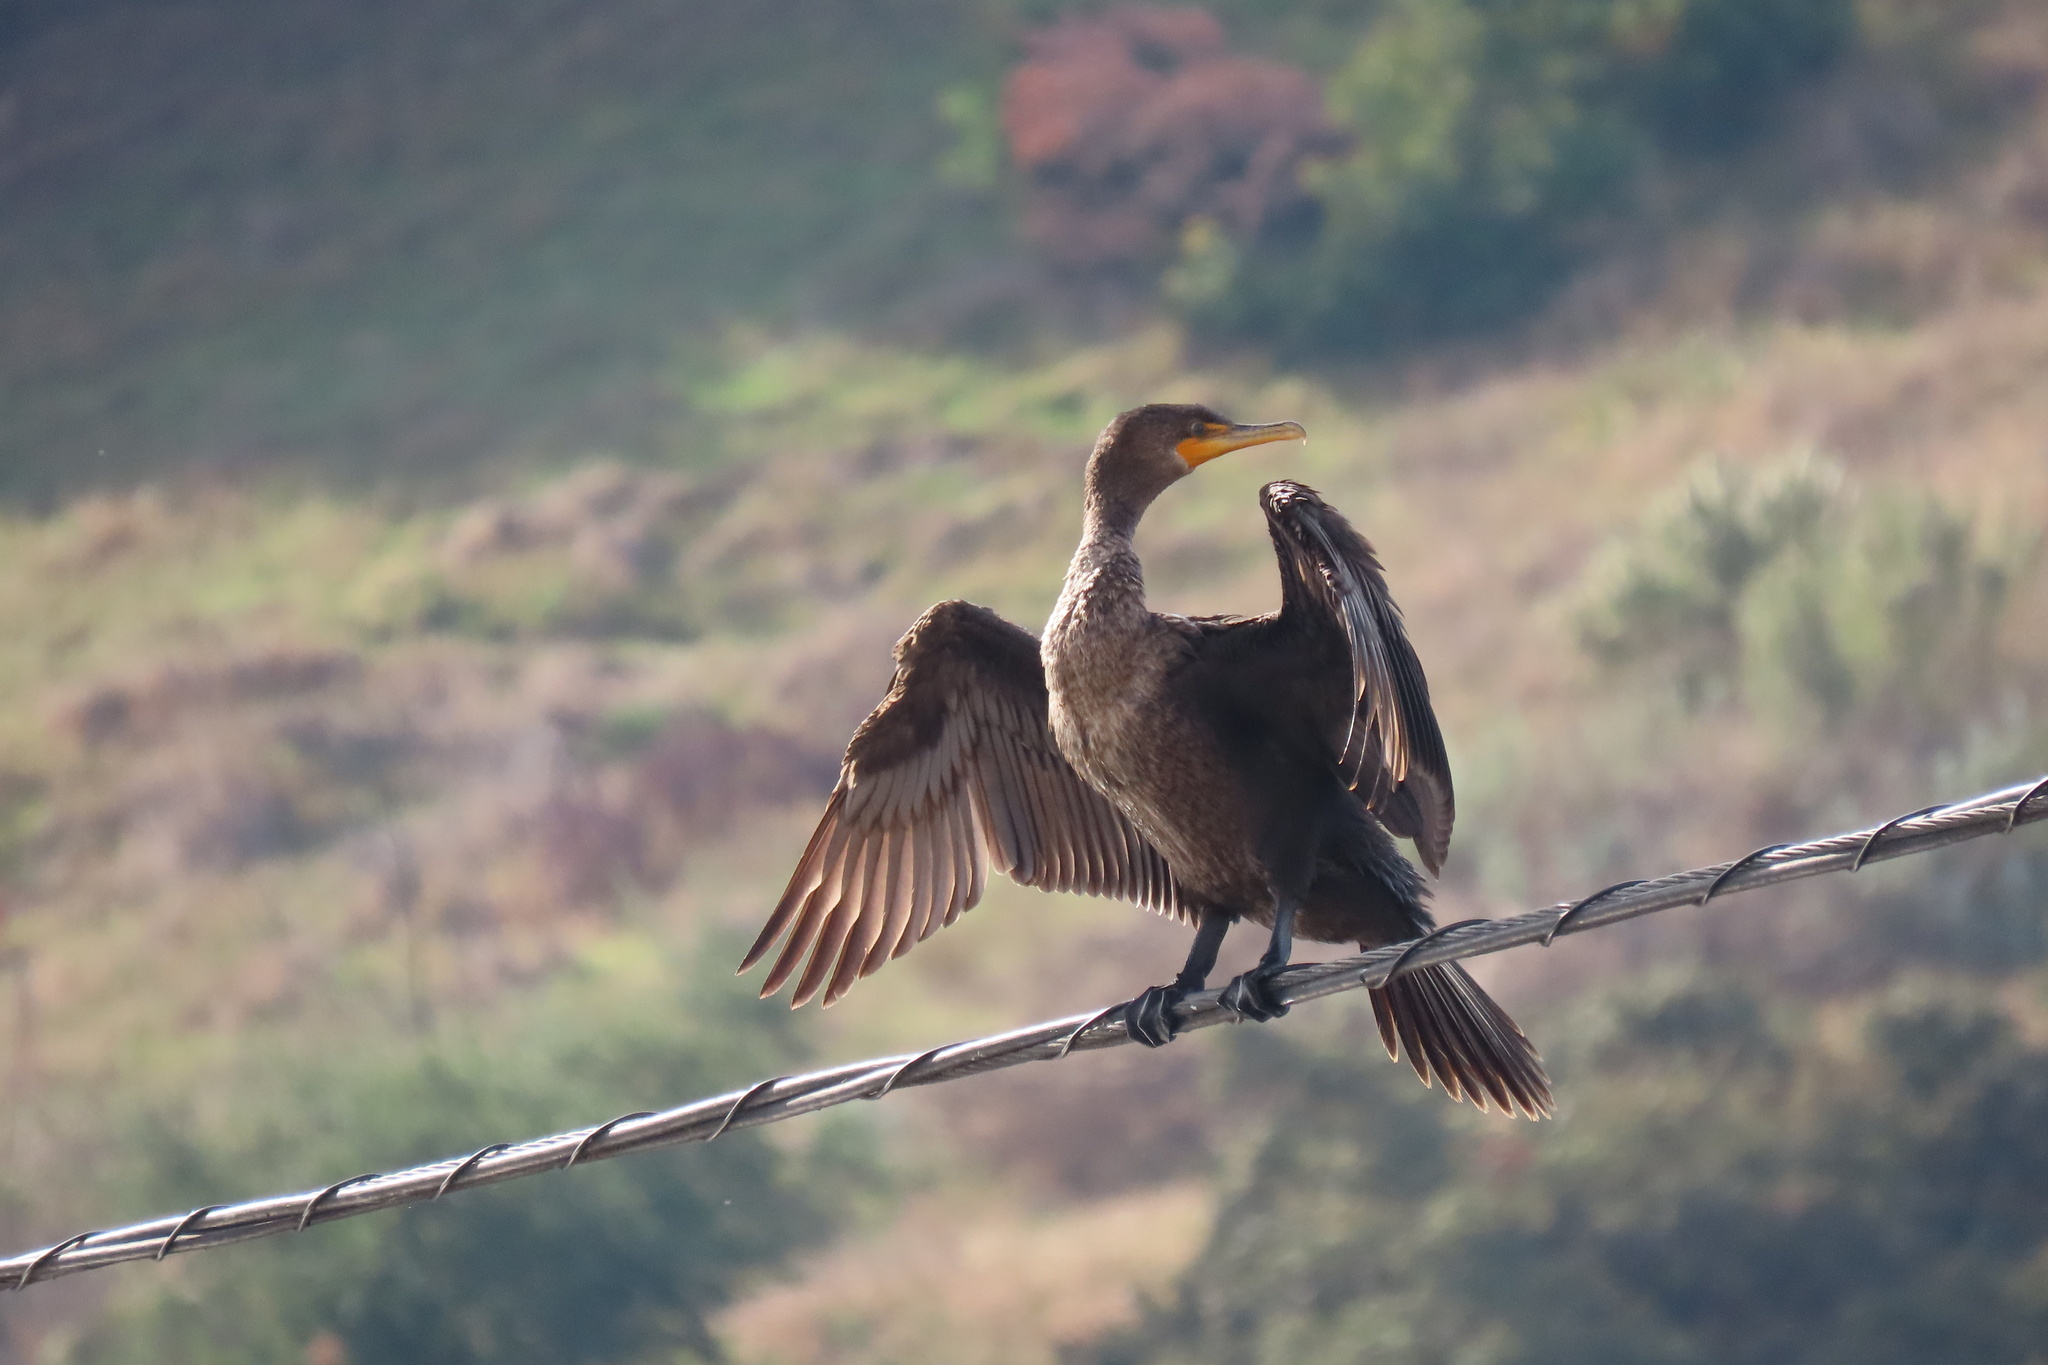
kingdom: Animalia
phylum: Chordata
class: Aves
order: Suliformes
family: Phalacrocoracidae
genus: Phalacrocorax
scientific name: Phalacrocorax auritus
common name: Double-crested cormorant
